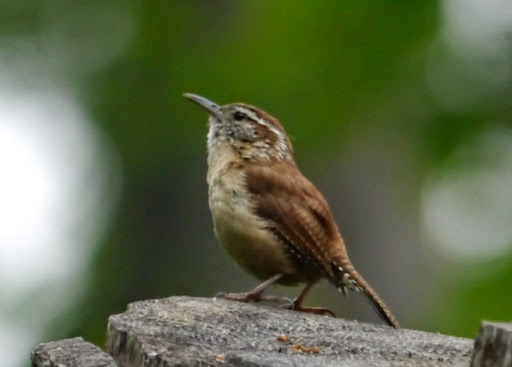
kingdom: Animalia
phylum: Chordata
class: Aves
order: Passeriformes
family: Troglodytidae
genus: Thryothorus
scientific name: Thryothorus ludovicianus
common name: Carolina wren
